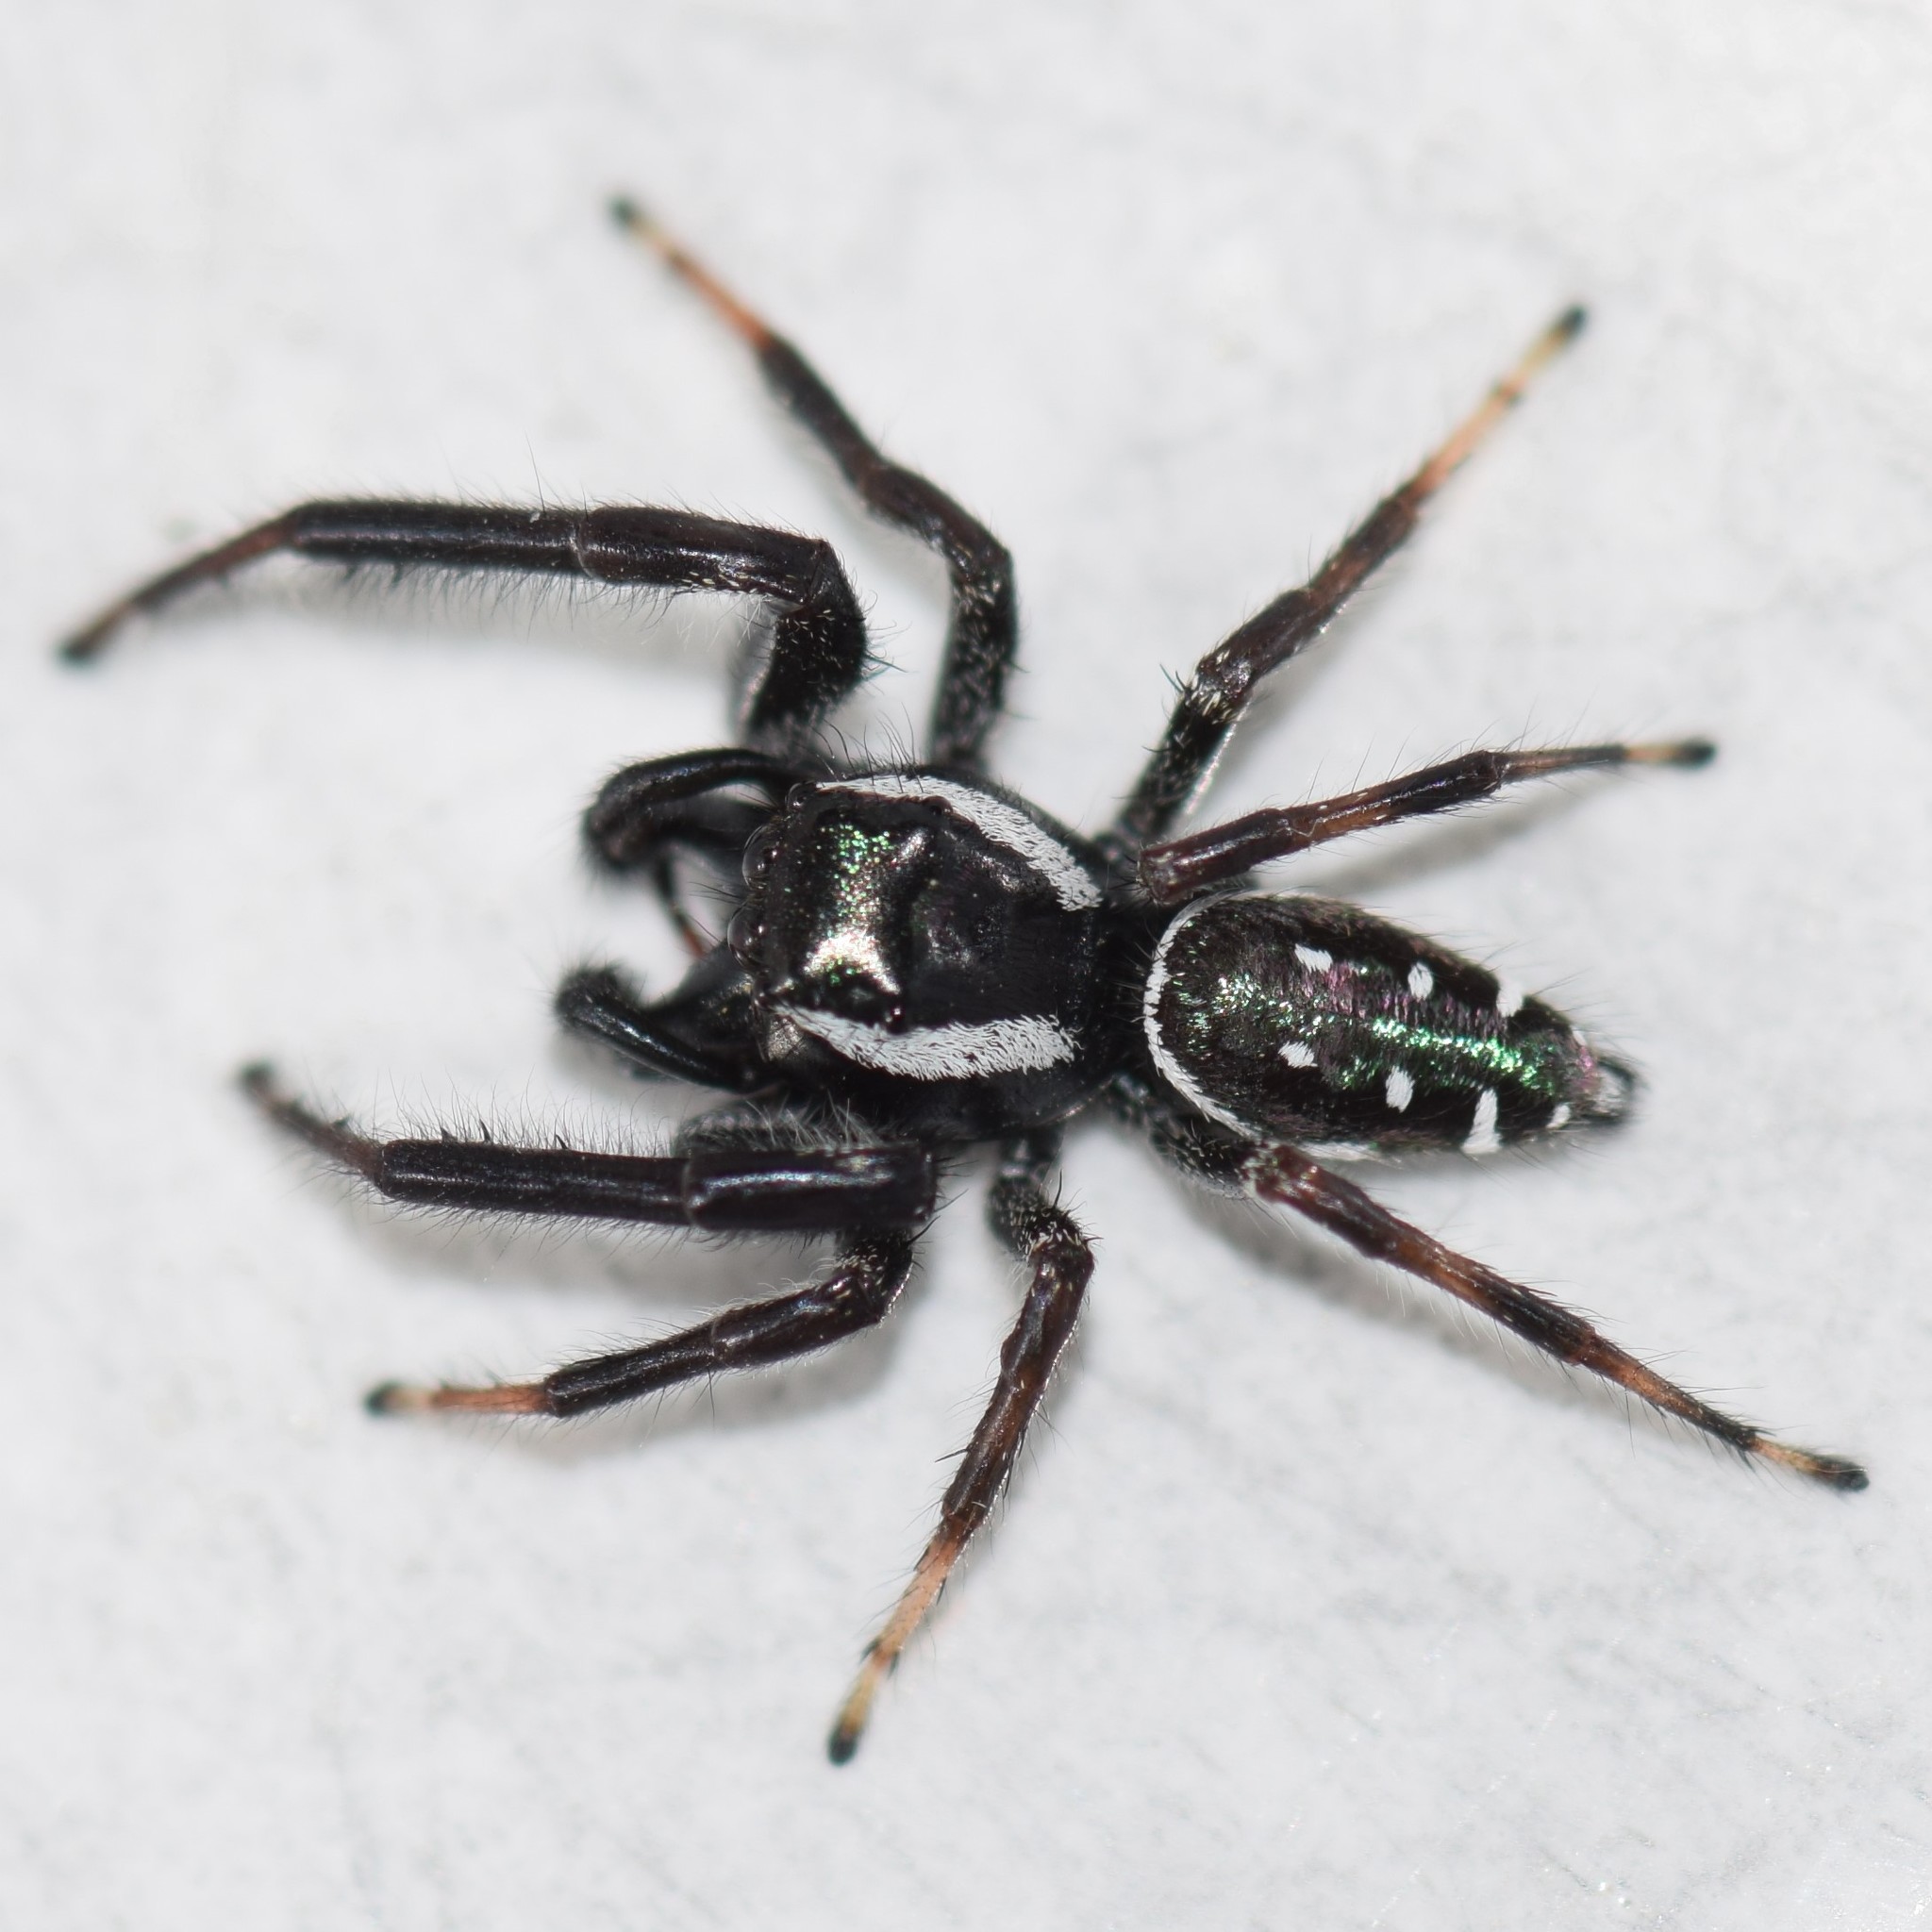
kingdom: Animalia
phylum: Arthropoda
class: Arachnida
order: Araneae
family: Salticidae
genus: Paraphidippus
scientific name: Paraphidippus aurantius
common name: Jumping spiders
